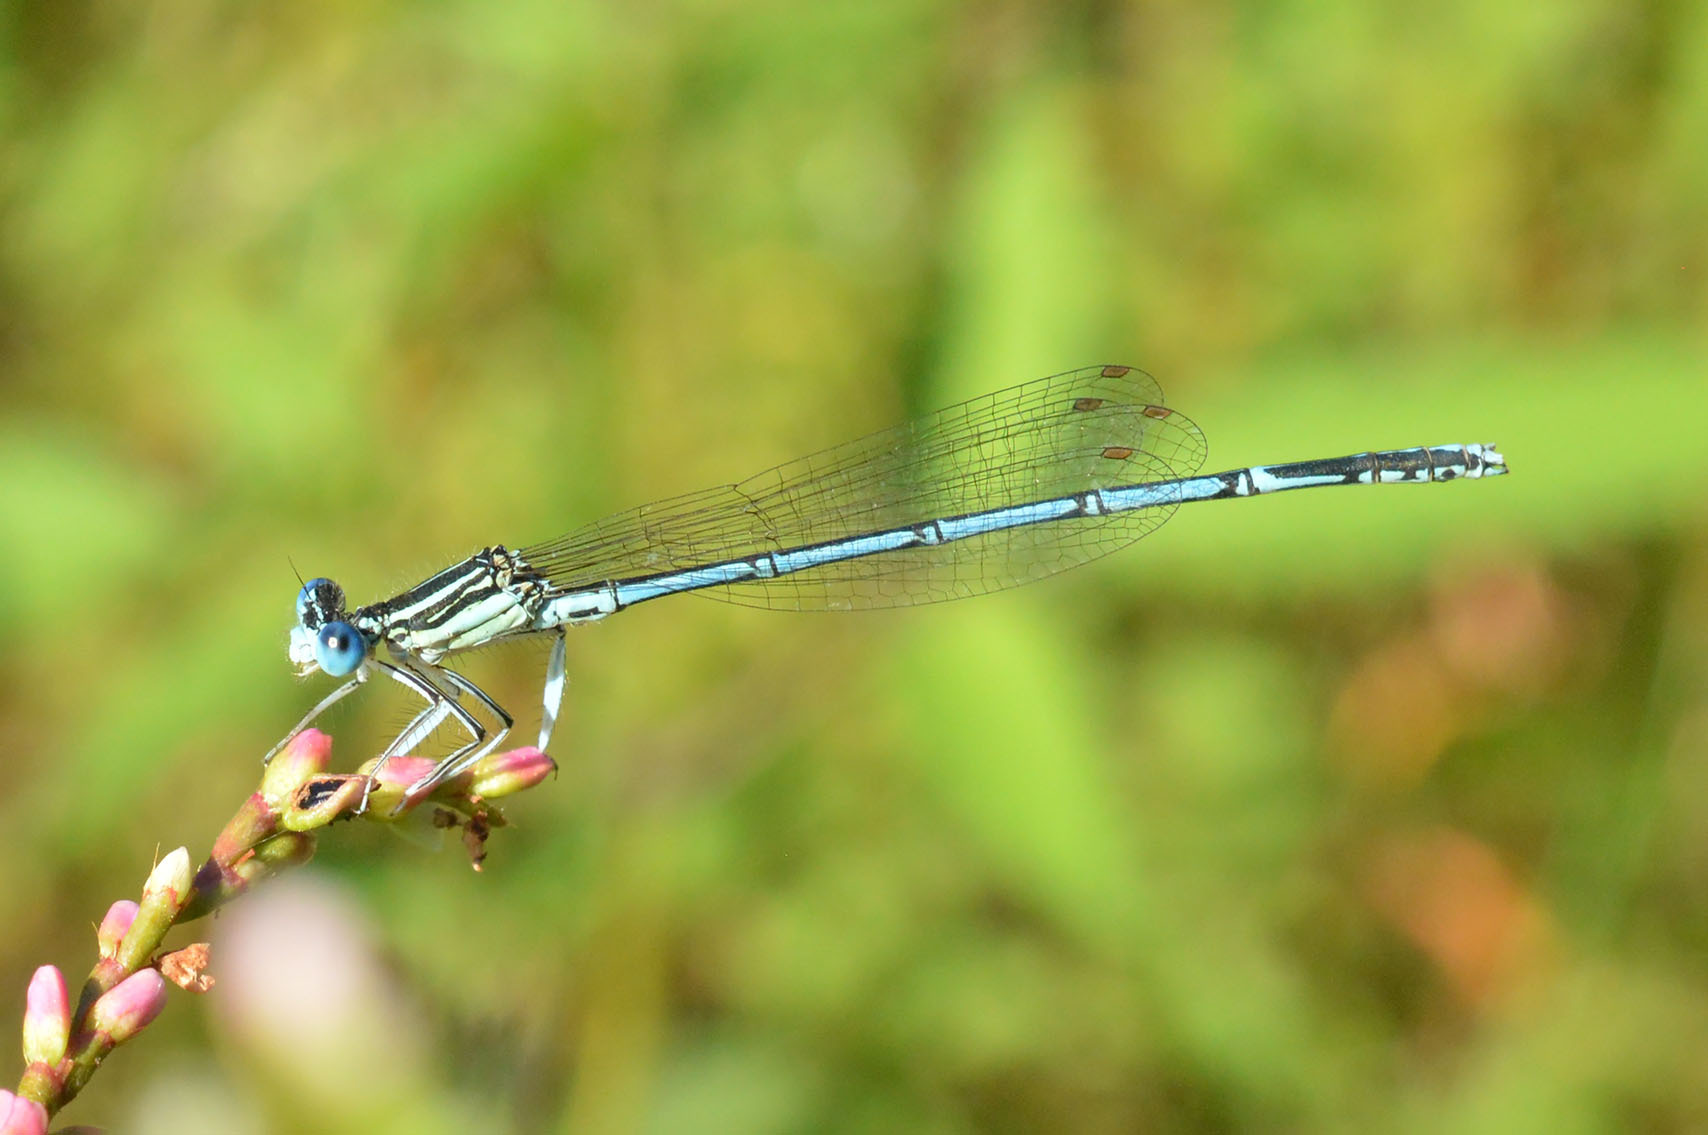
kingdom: Animalia
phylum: Arthropoda
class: Insecta
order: Odonata
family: Platycnemididae
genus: Platycnemis
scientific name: Platycnemis pennipes
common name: White-legged damselfly
